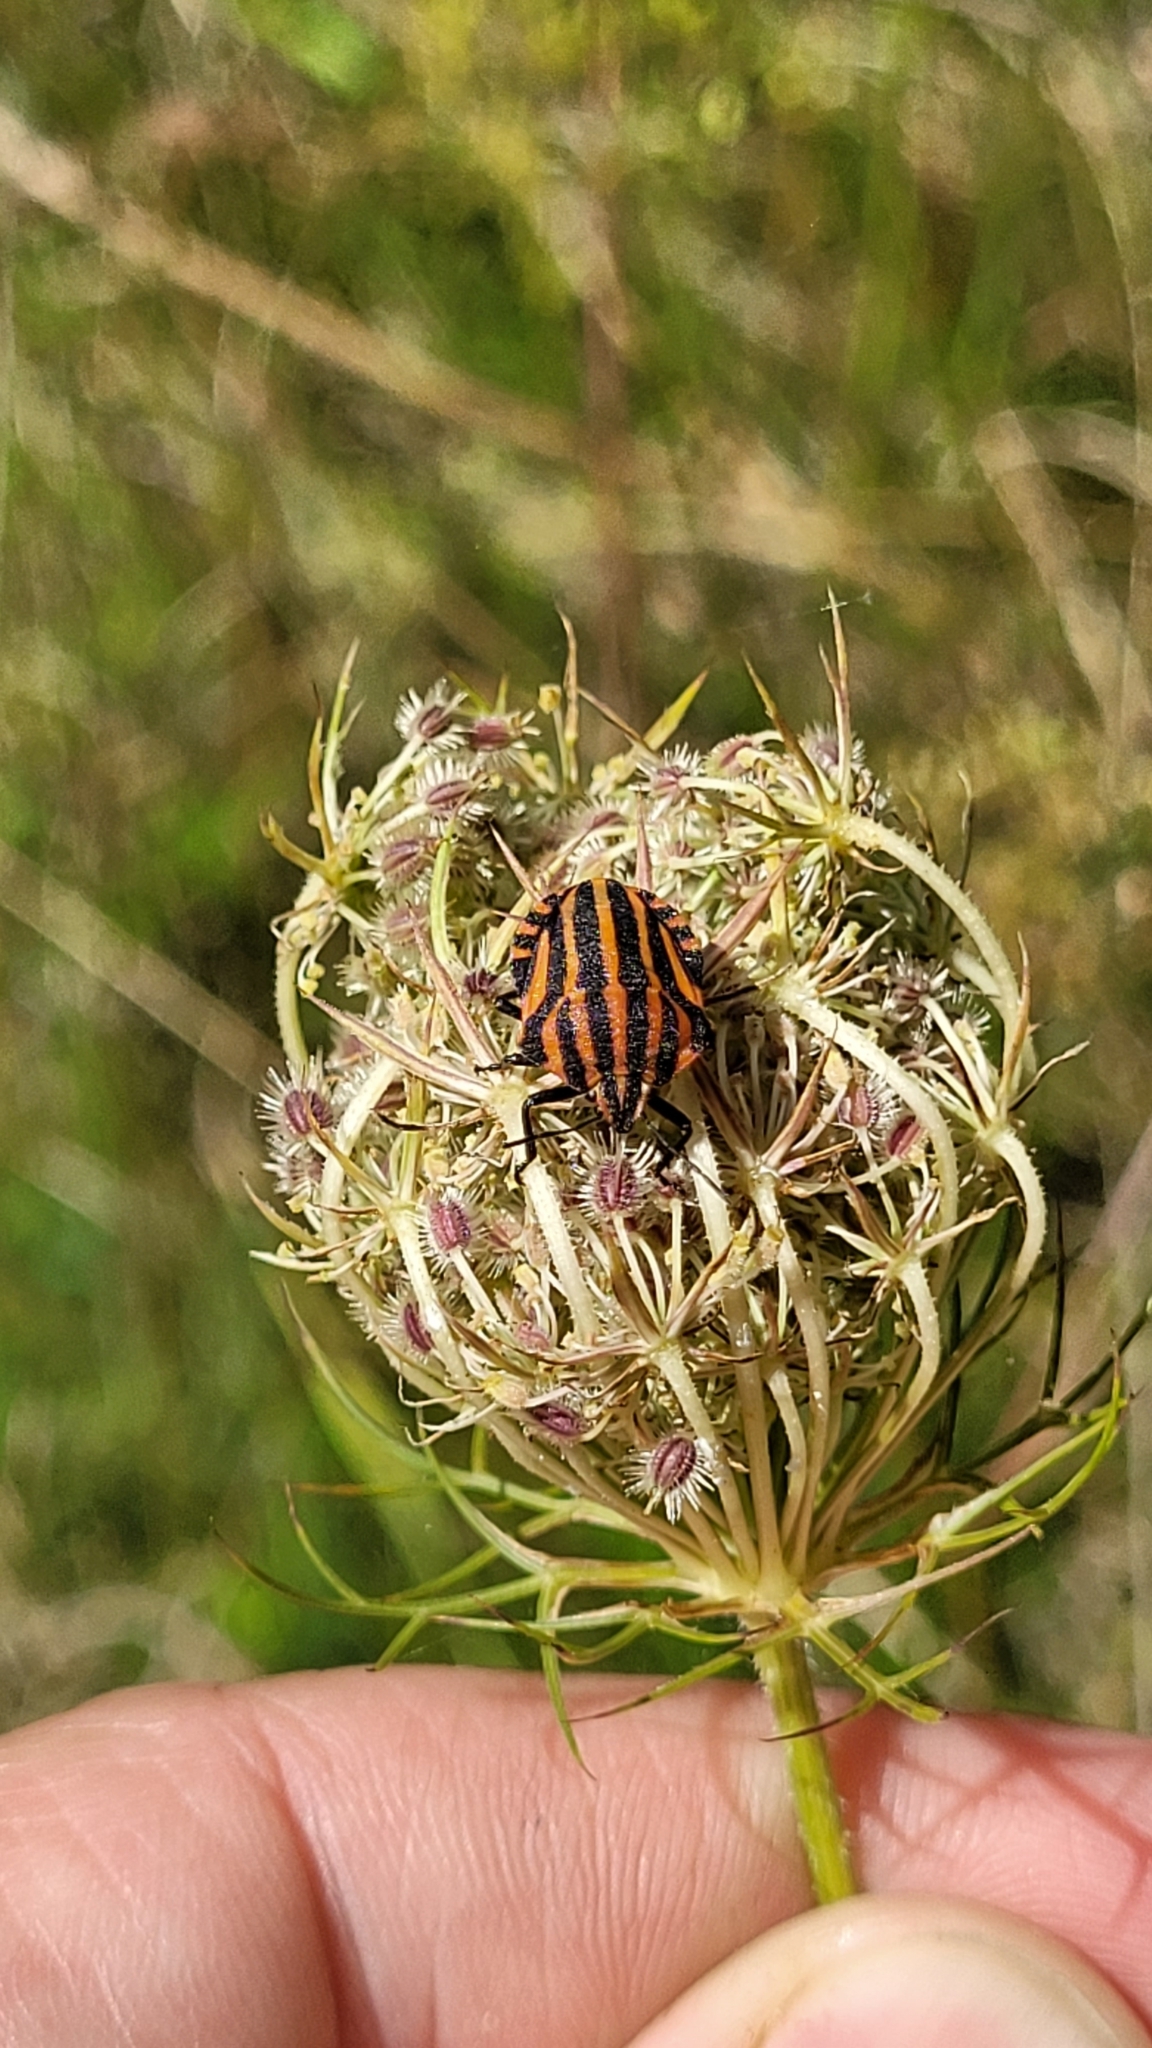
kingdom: Animalia
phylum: Arthropoda
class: Insecta
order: Hemiptera
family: Pentatomidae
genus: Graphosoma
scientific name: Graphosoma italicum
